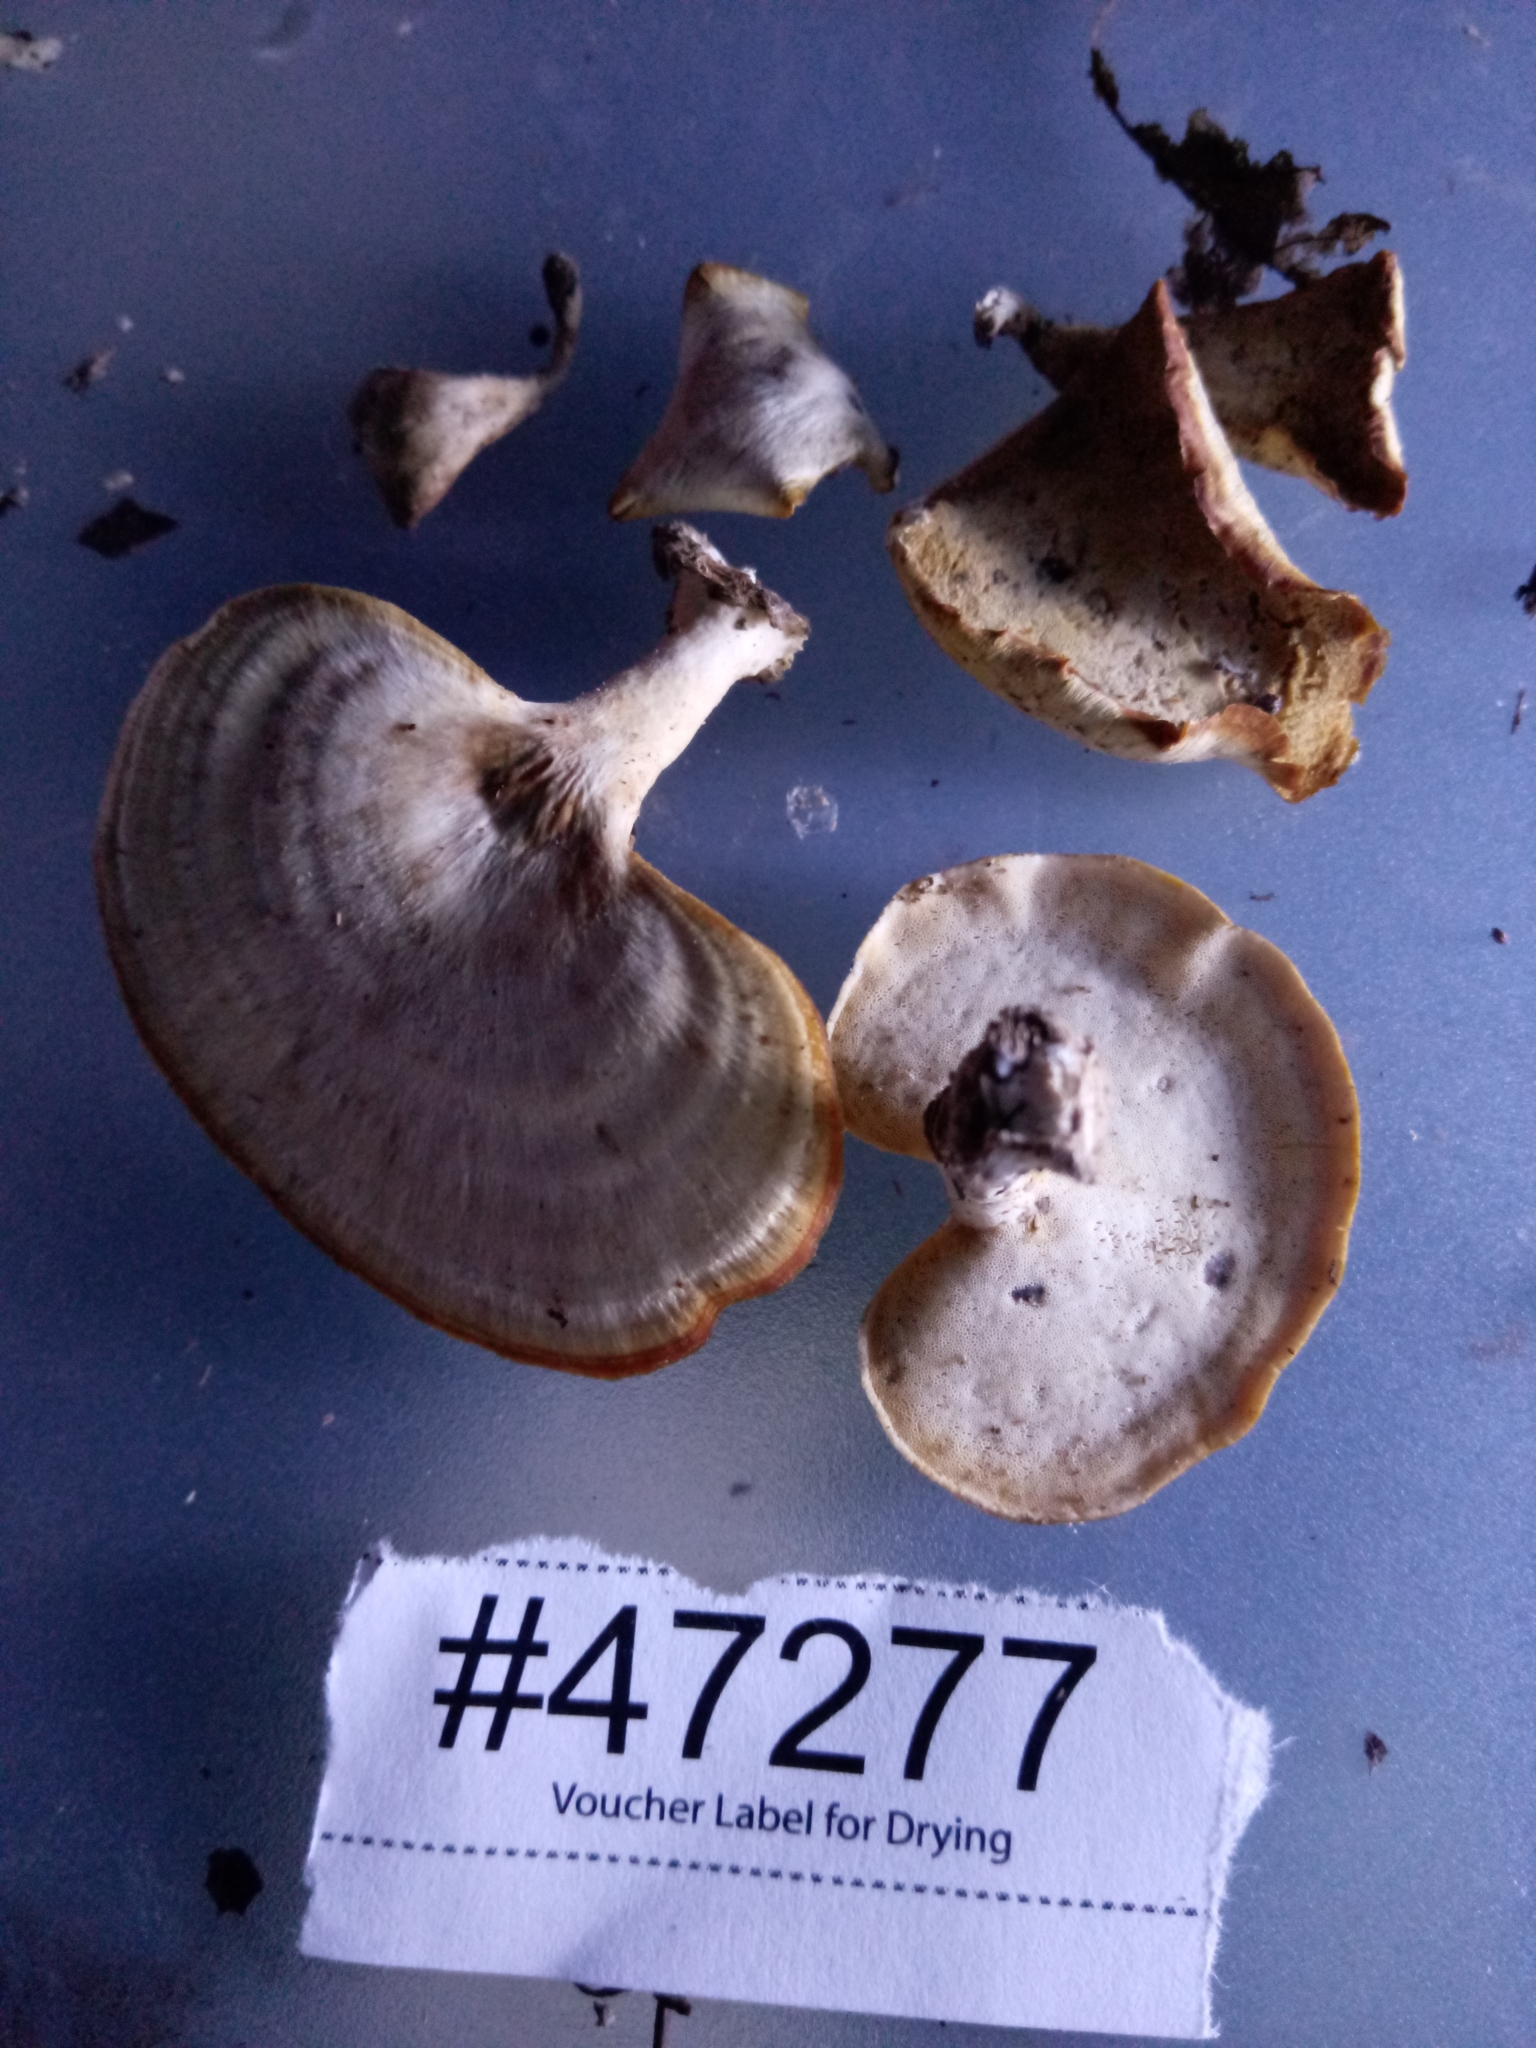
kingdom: Fungi
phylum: Basidiomycota
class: Agaricomycetes
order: Polyporales
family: Polyporaceae
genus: Microporellus
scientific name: Microporellus obovatus
